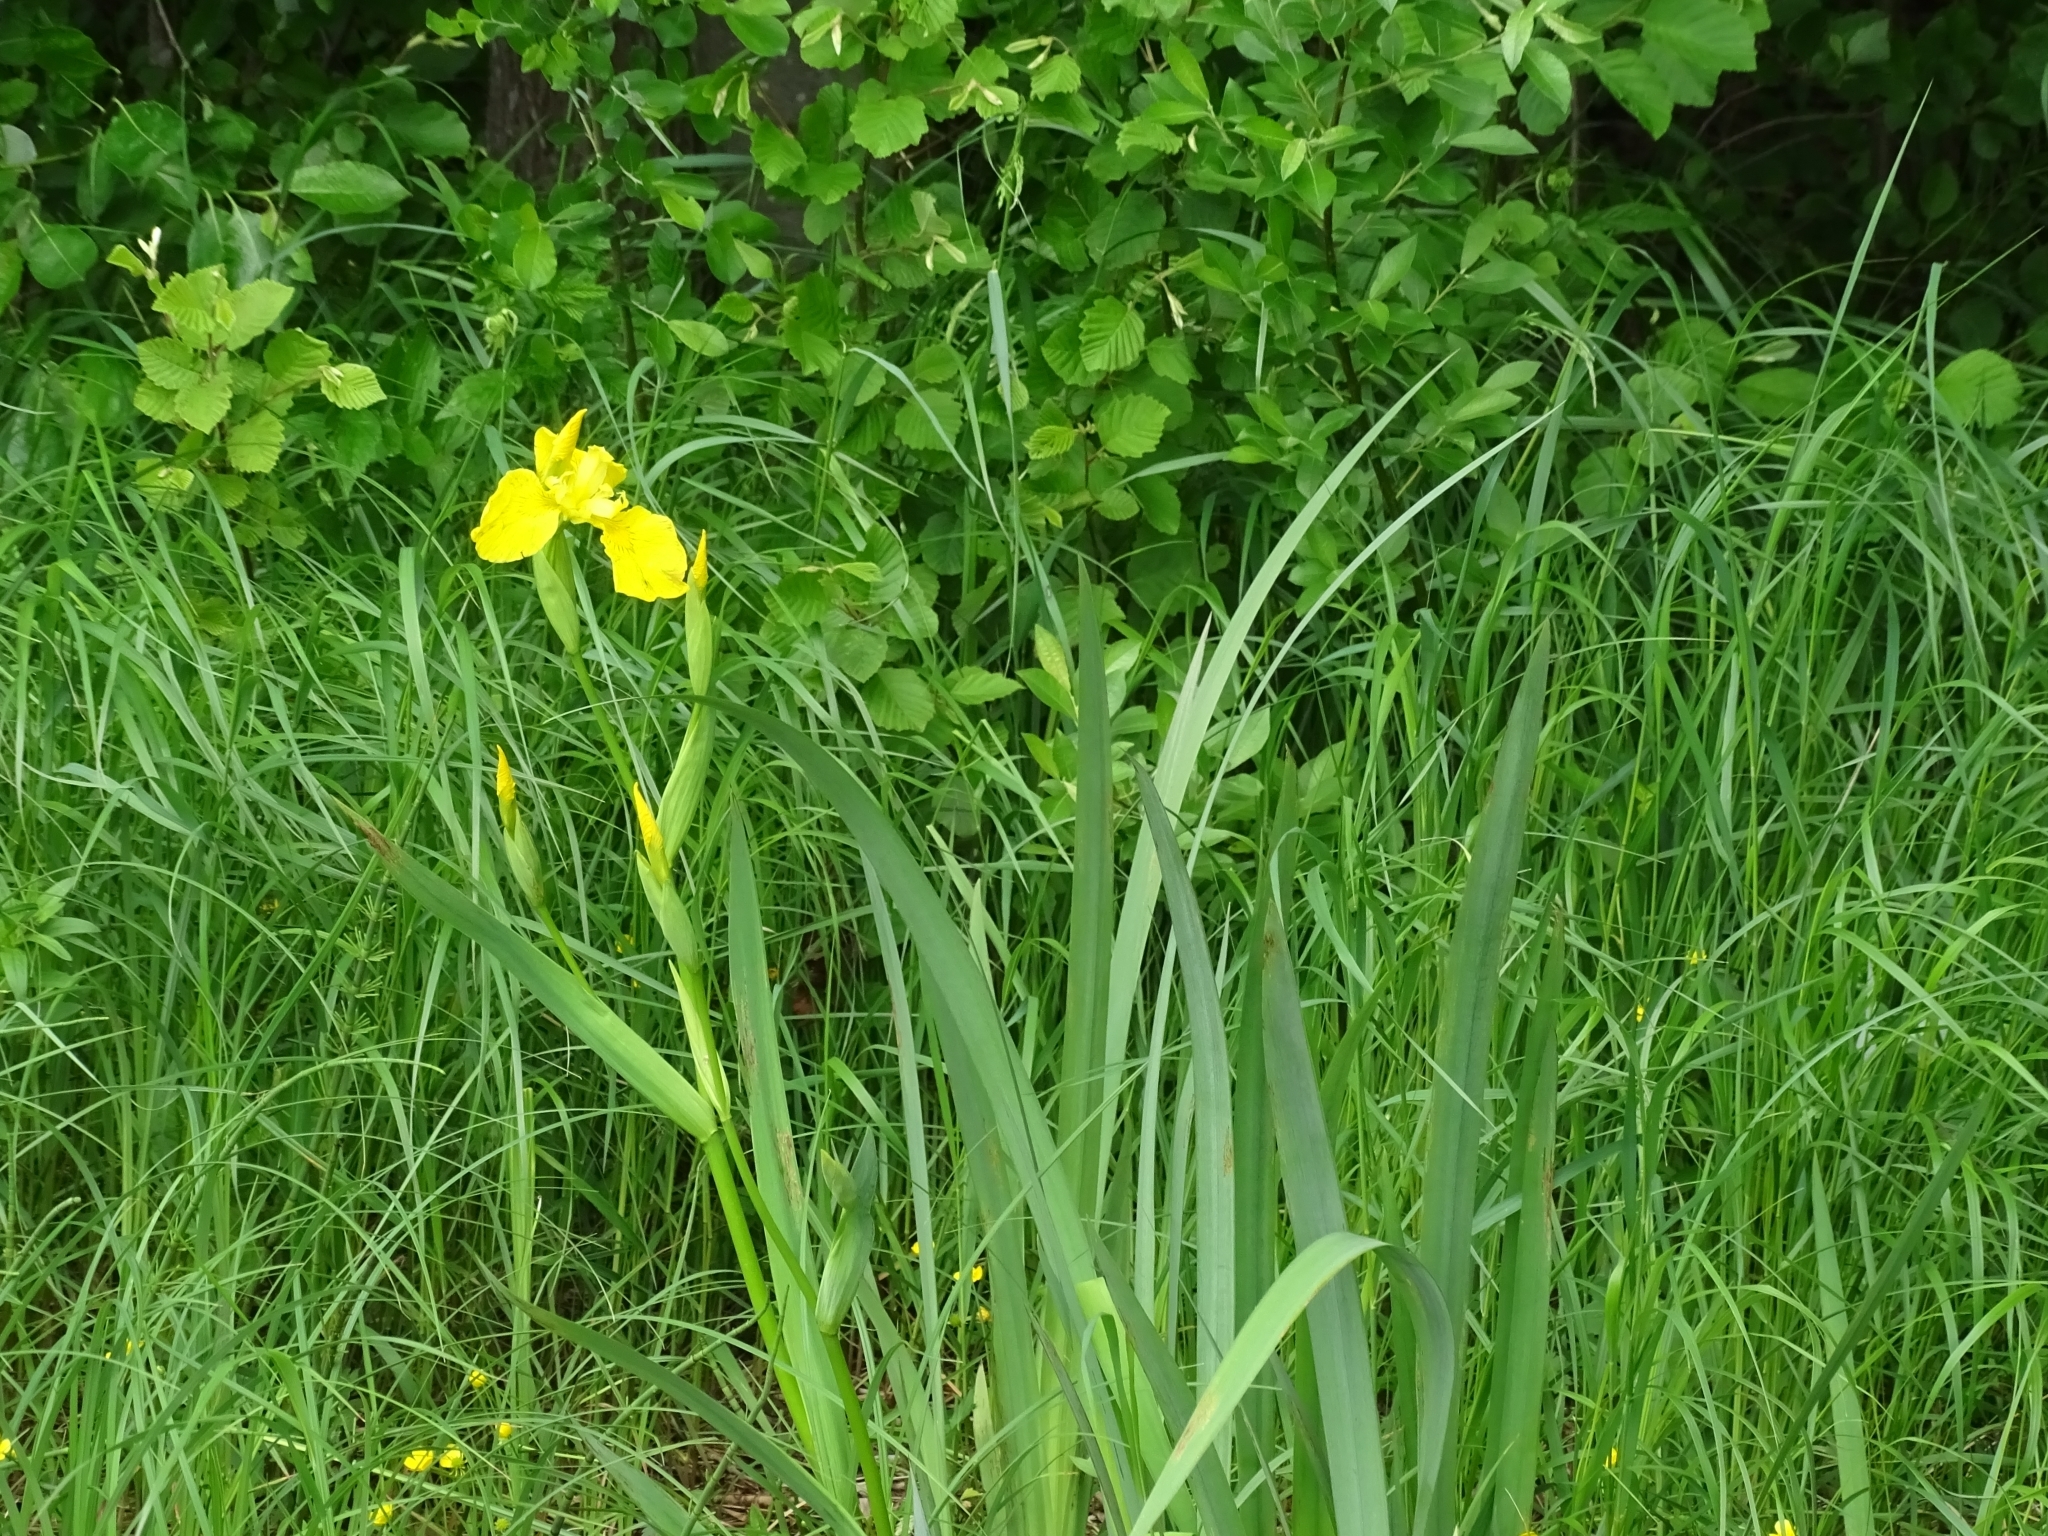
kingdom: Plantae
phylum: Tracheophyta
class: Liliopsida
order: Asparagales
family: Iridaceae
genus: Iris
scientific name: Iris pseudacorus
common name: Yellow flag
